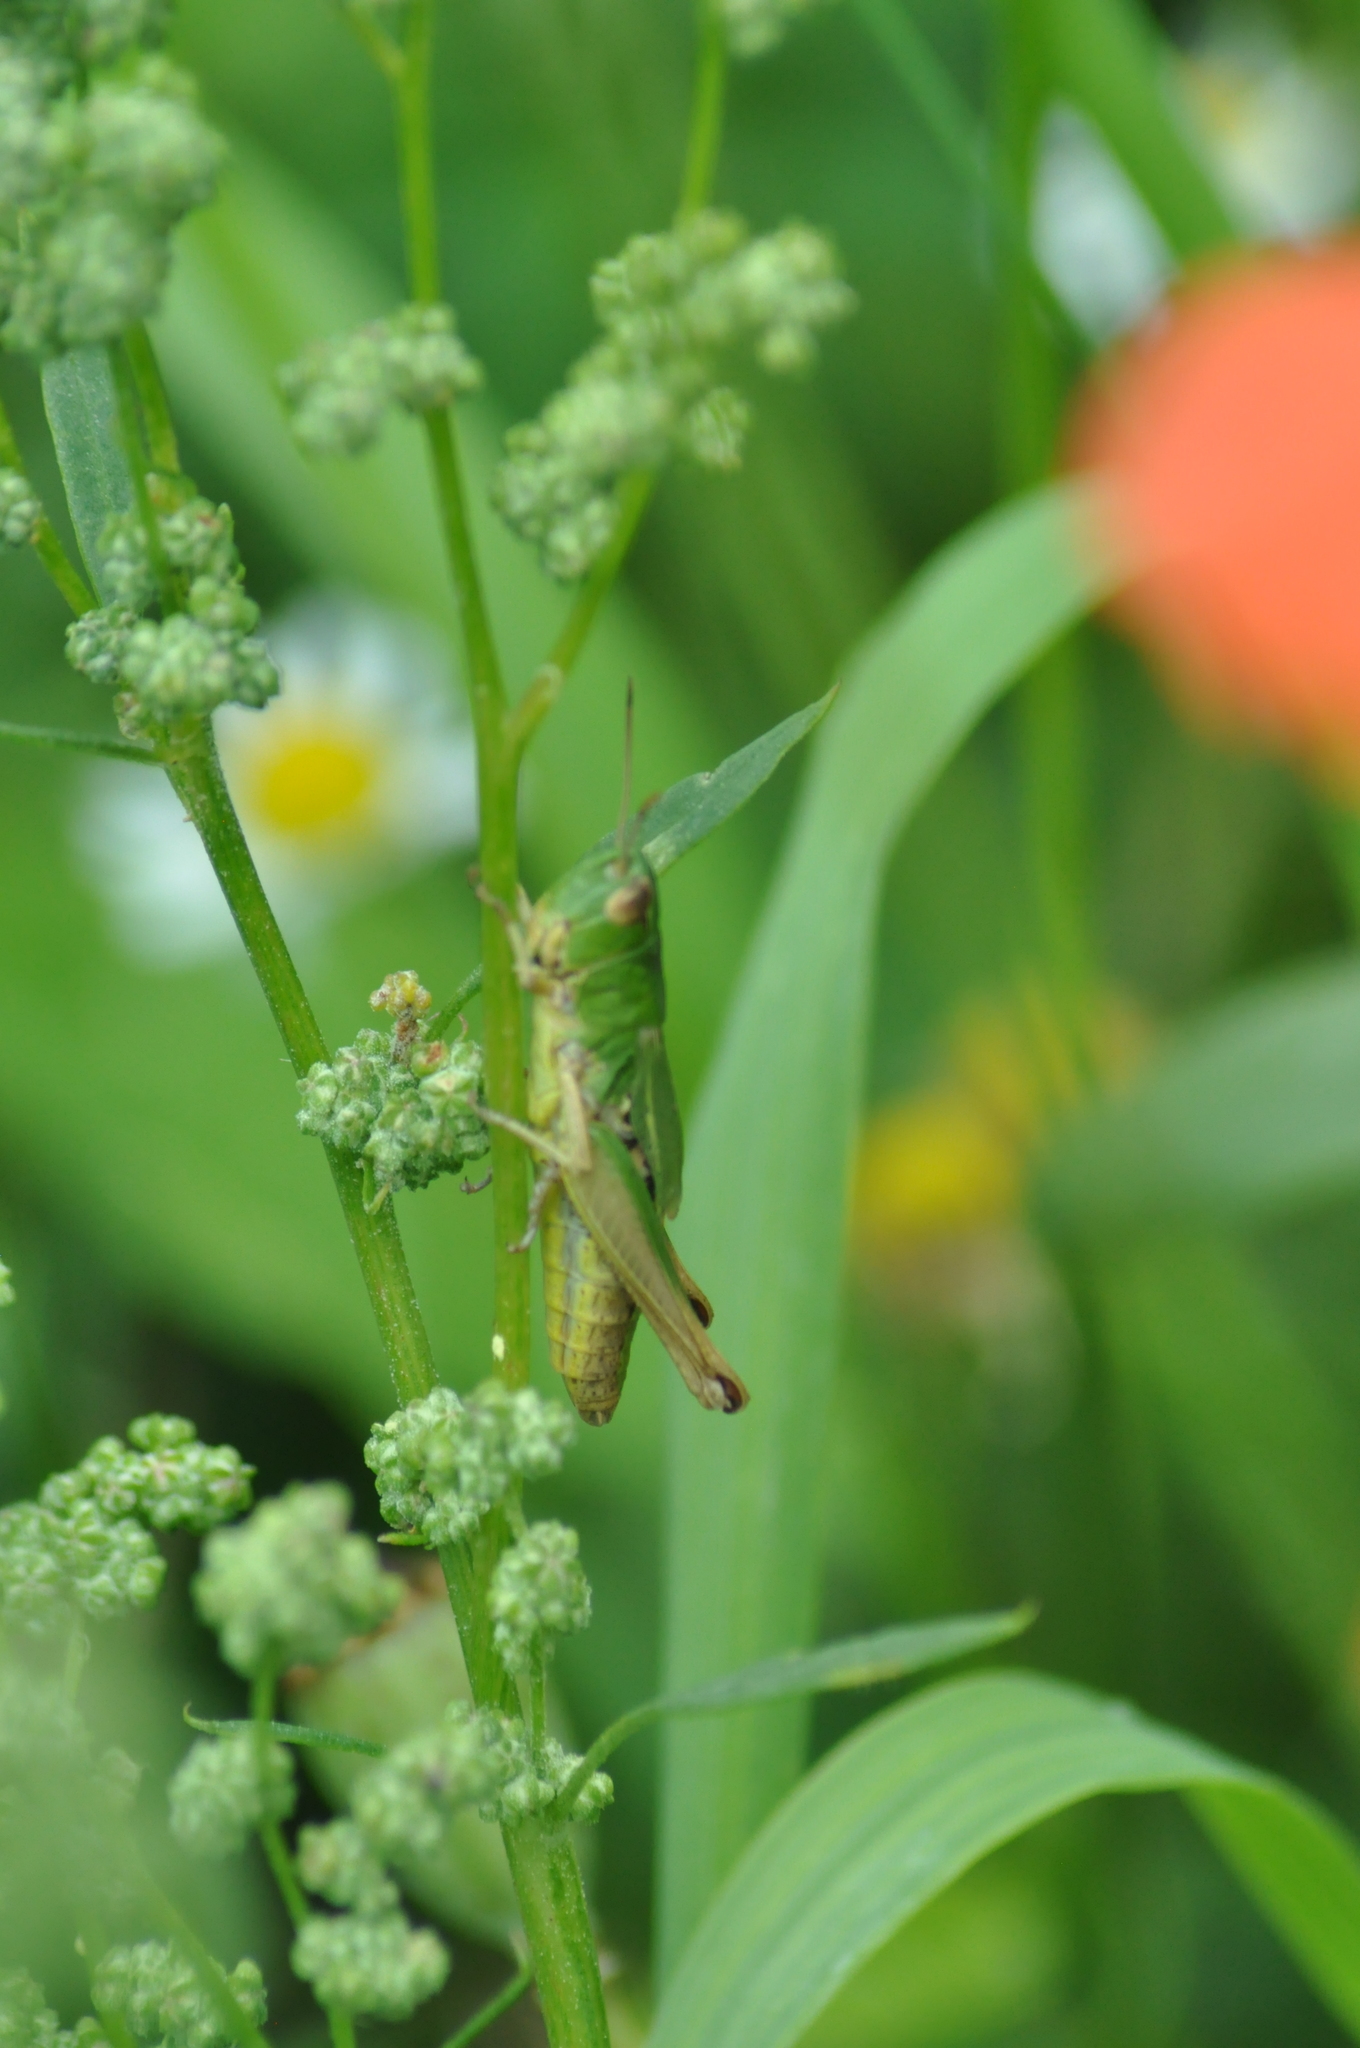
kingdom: Animalia
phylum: Arthropoda
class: Insecta
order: Orthoptera
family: Acrididae
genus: Pseudochorthippus
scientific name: Pseudochorthippus parallelus
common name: Meadow grasshopper
